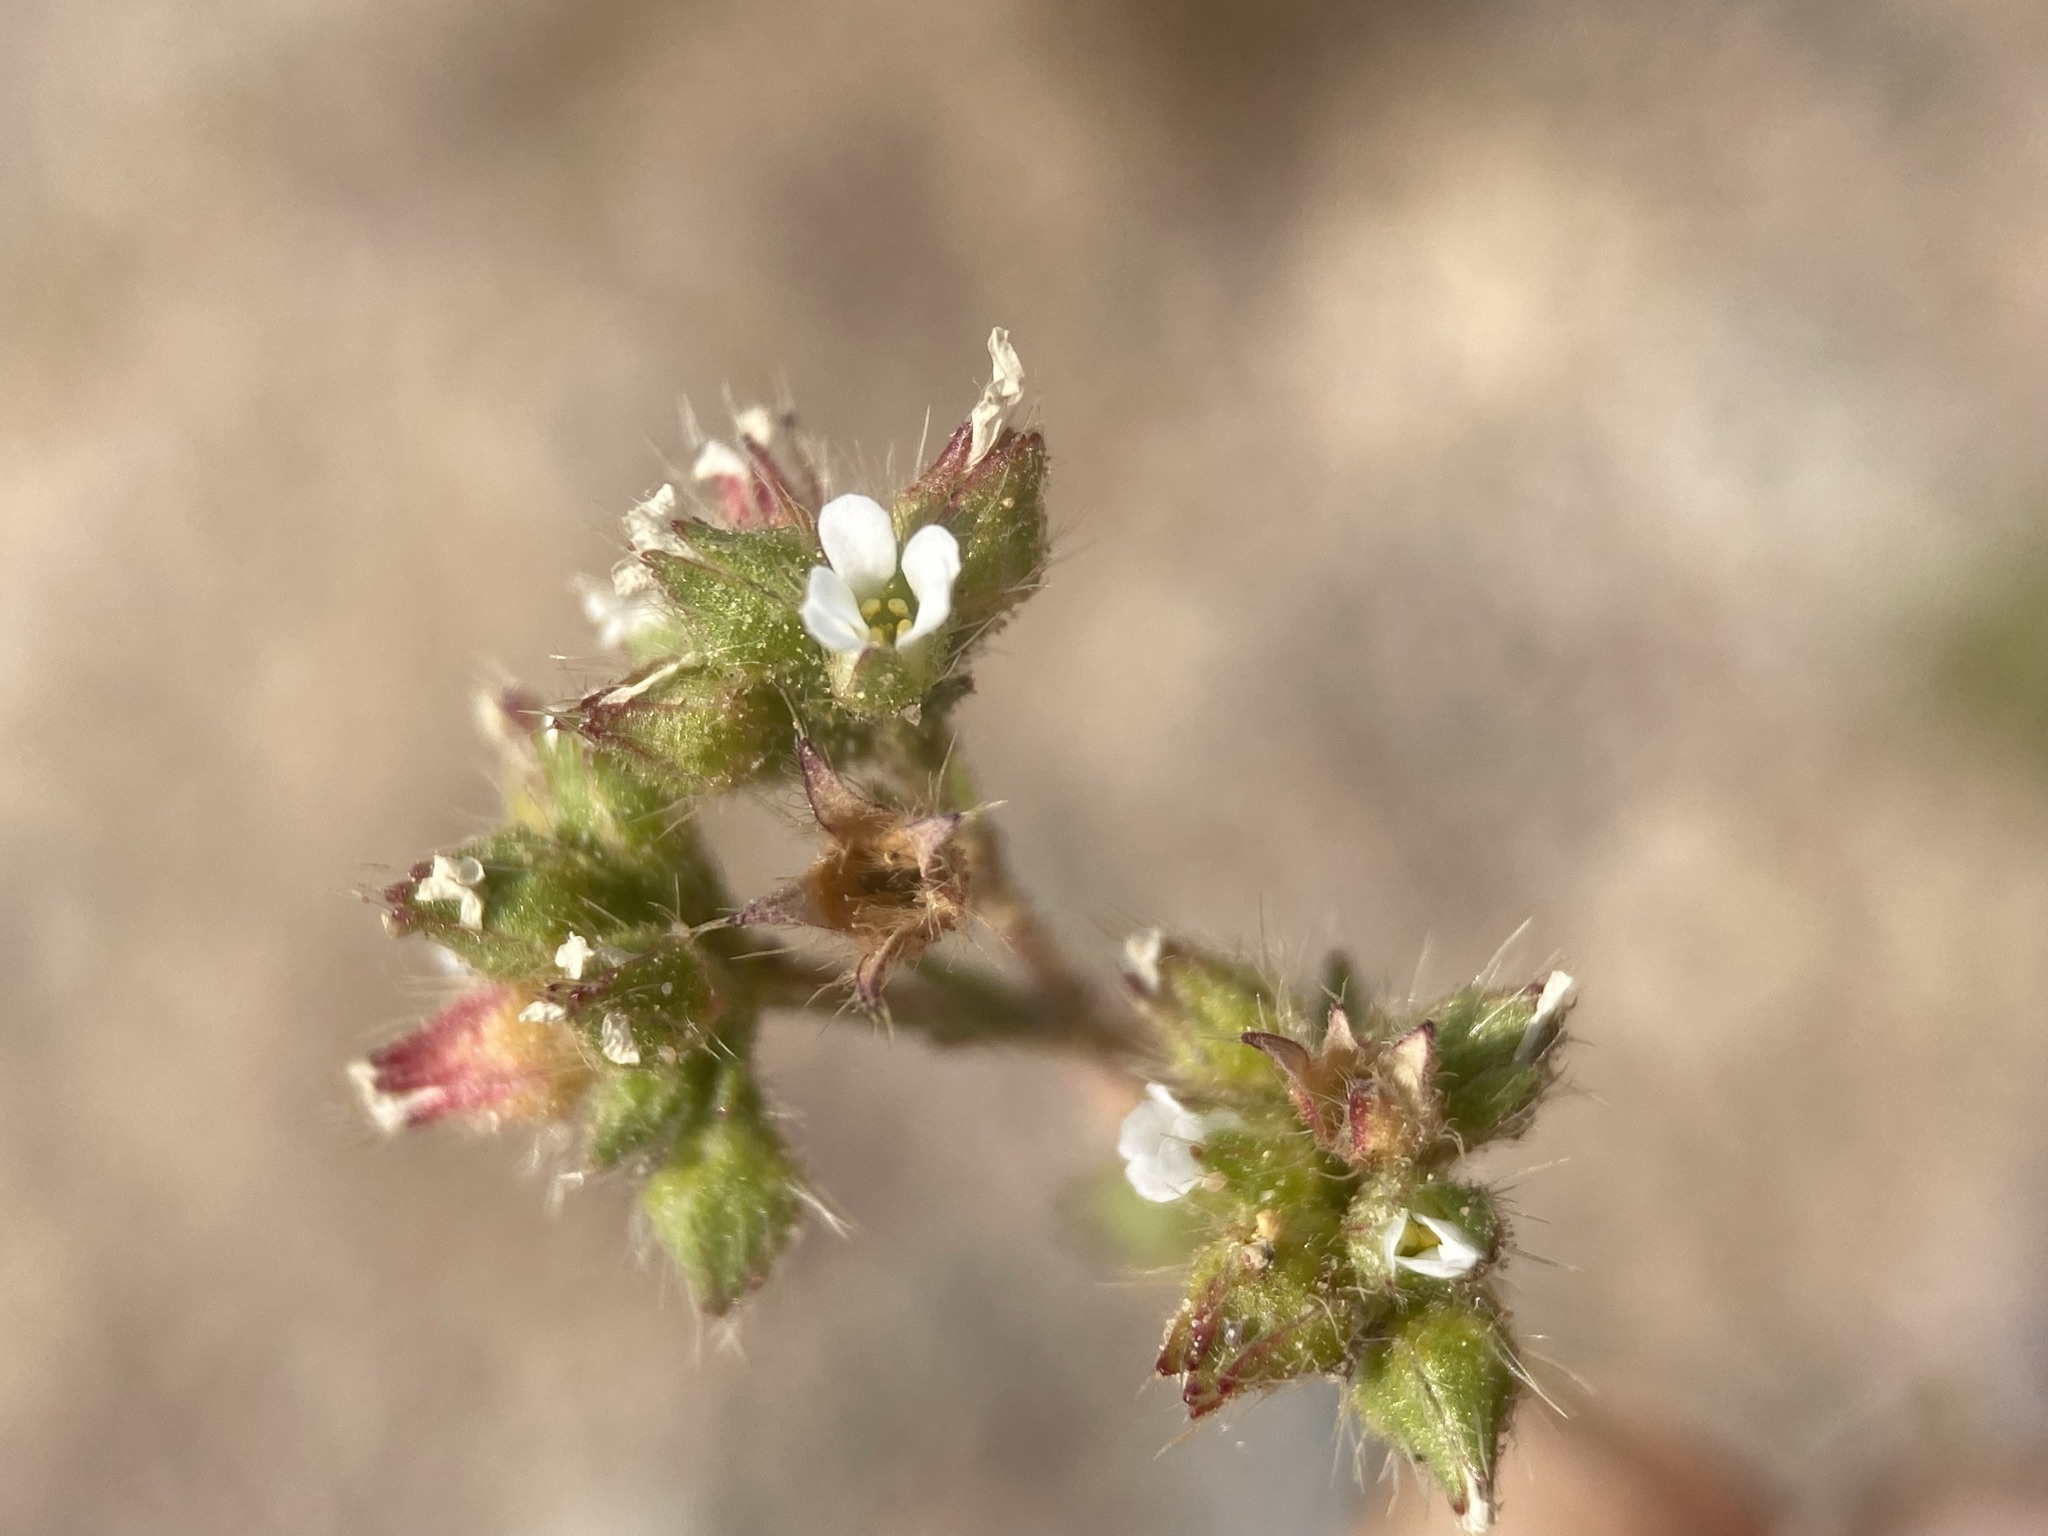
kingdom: Plantae
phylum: Tracheophyta
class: Magnoliopsida
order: Rosales
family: Rosaceae
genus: Chamaerhodos
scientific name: Chamaerhodos erecta
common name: American chamaerhodos
